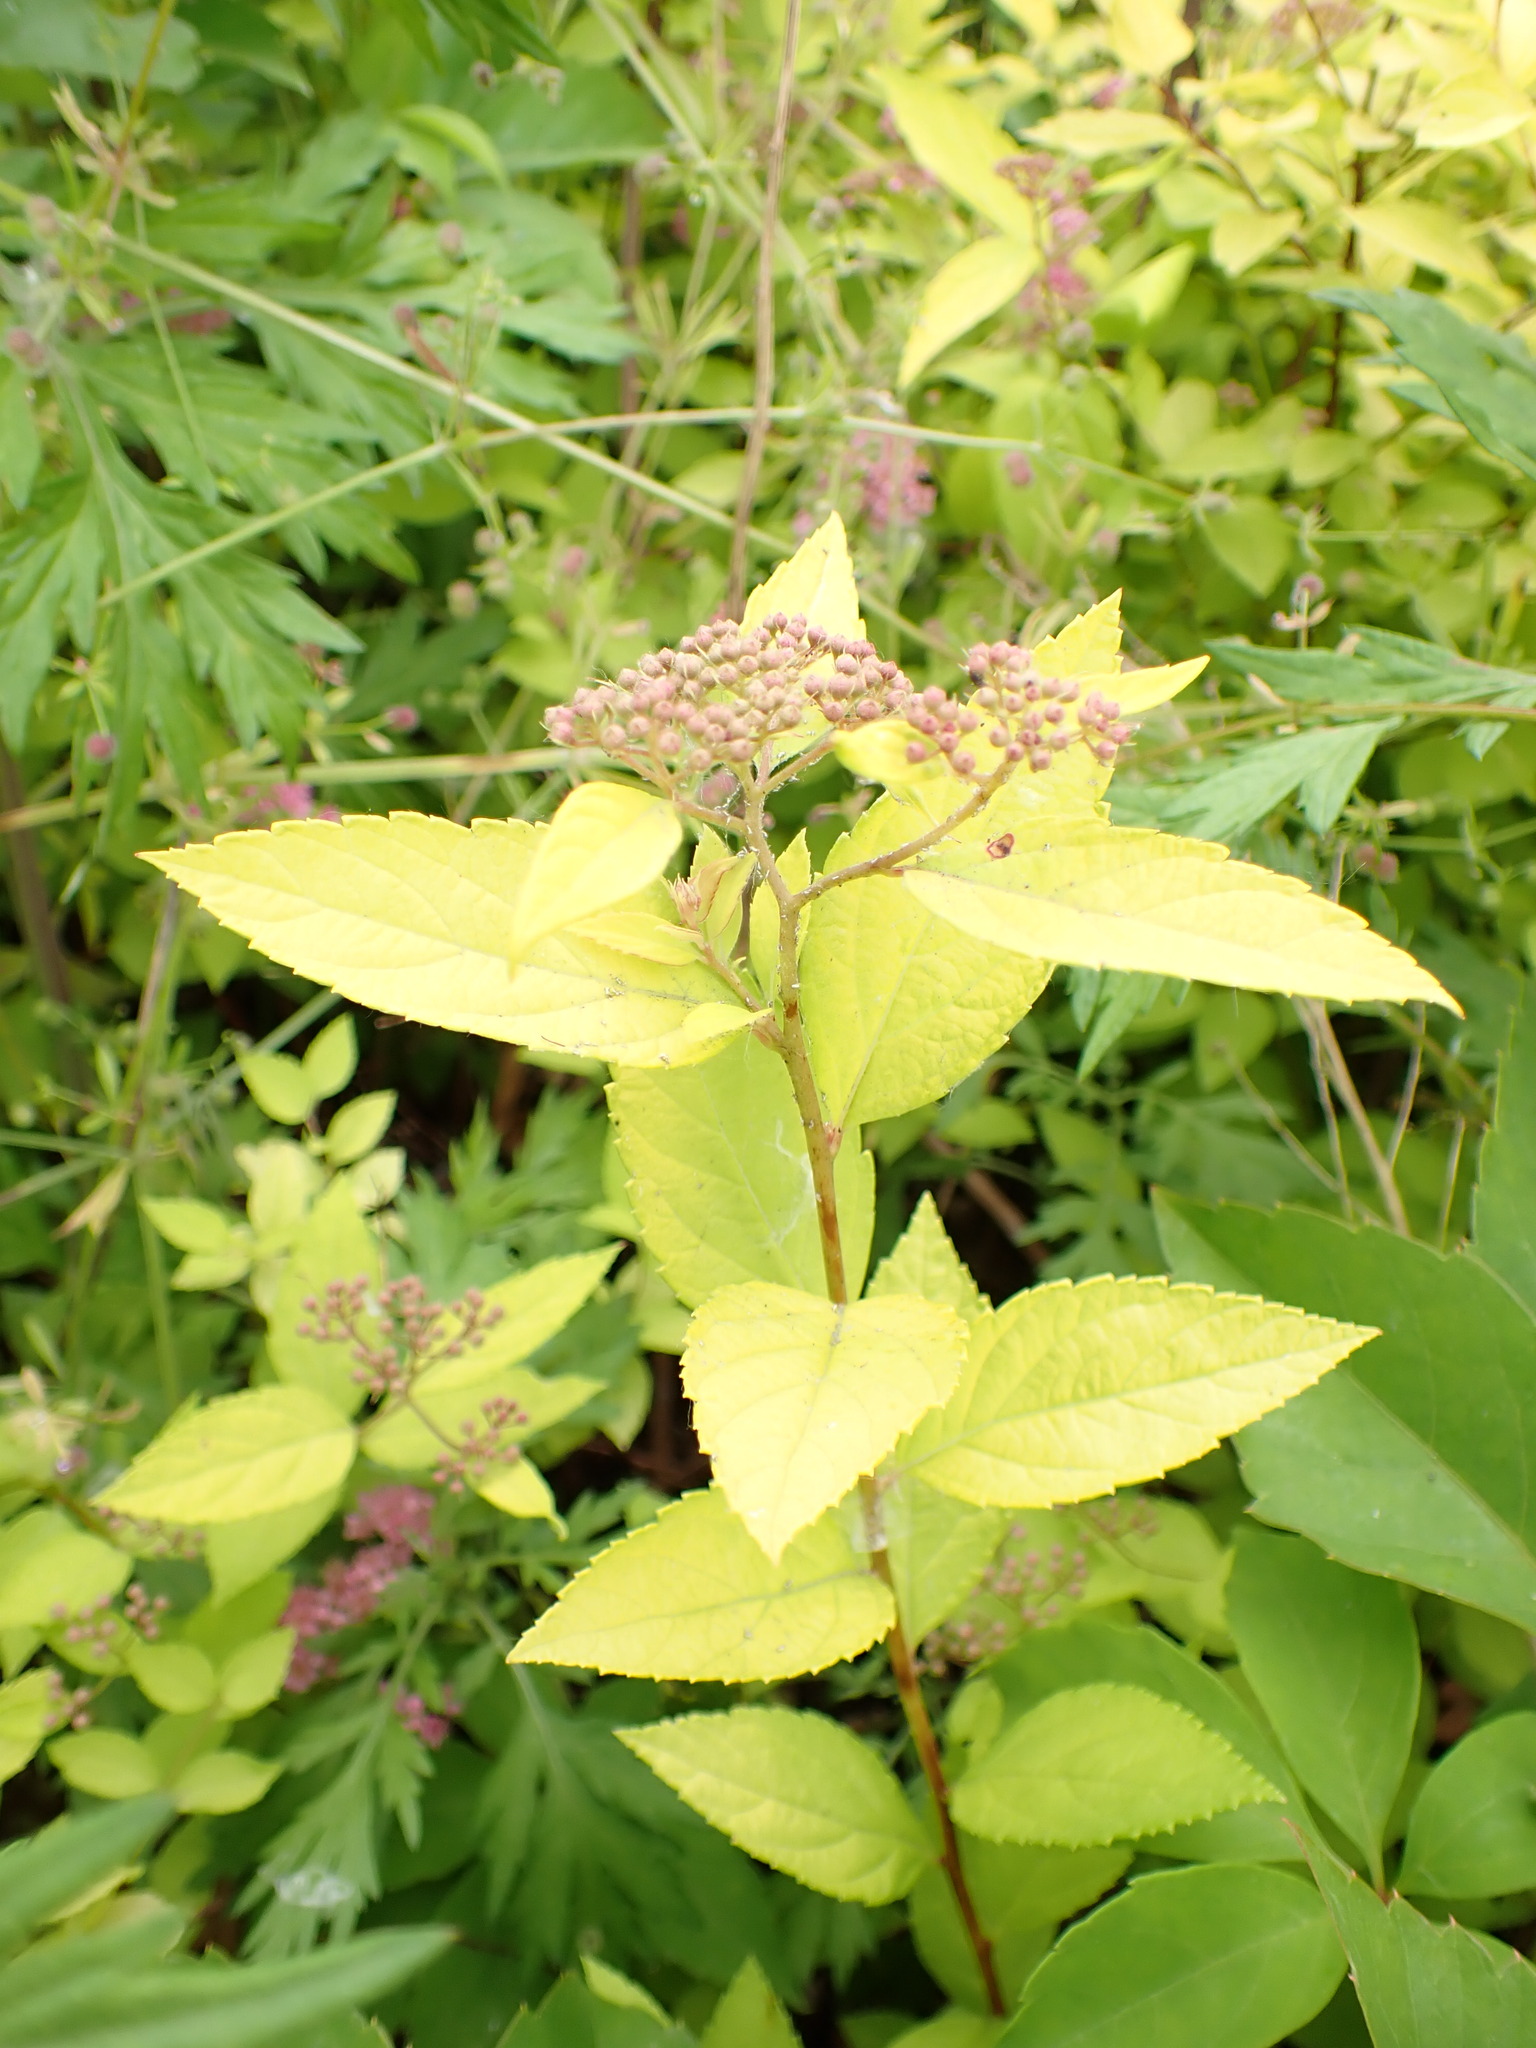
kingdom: Plantae
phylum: Tracheophyta
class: Magnoliopsida
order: Rosales
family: Rosaceae
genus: Spiraea
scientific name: Spiraea japonica
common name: Japanese spiraea
